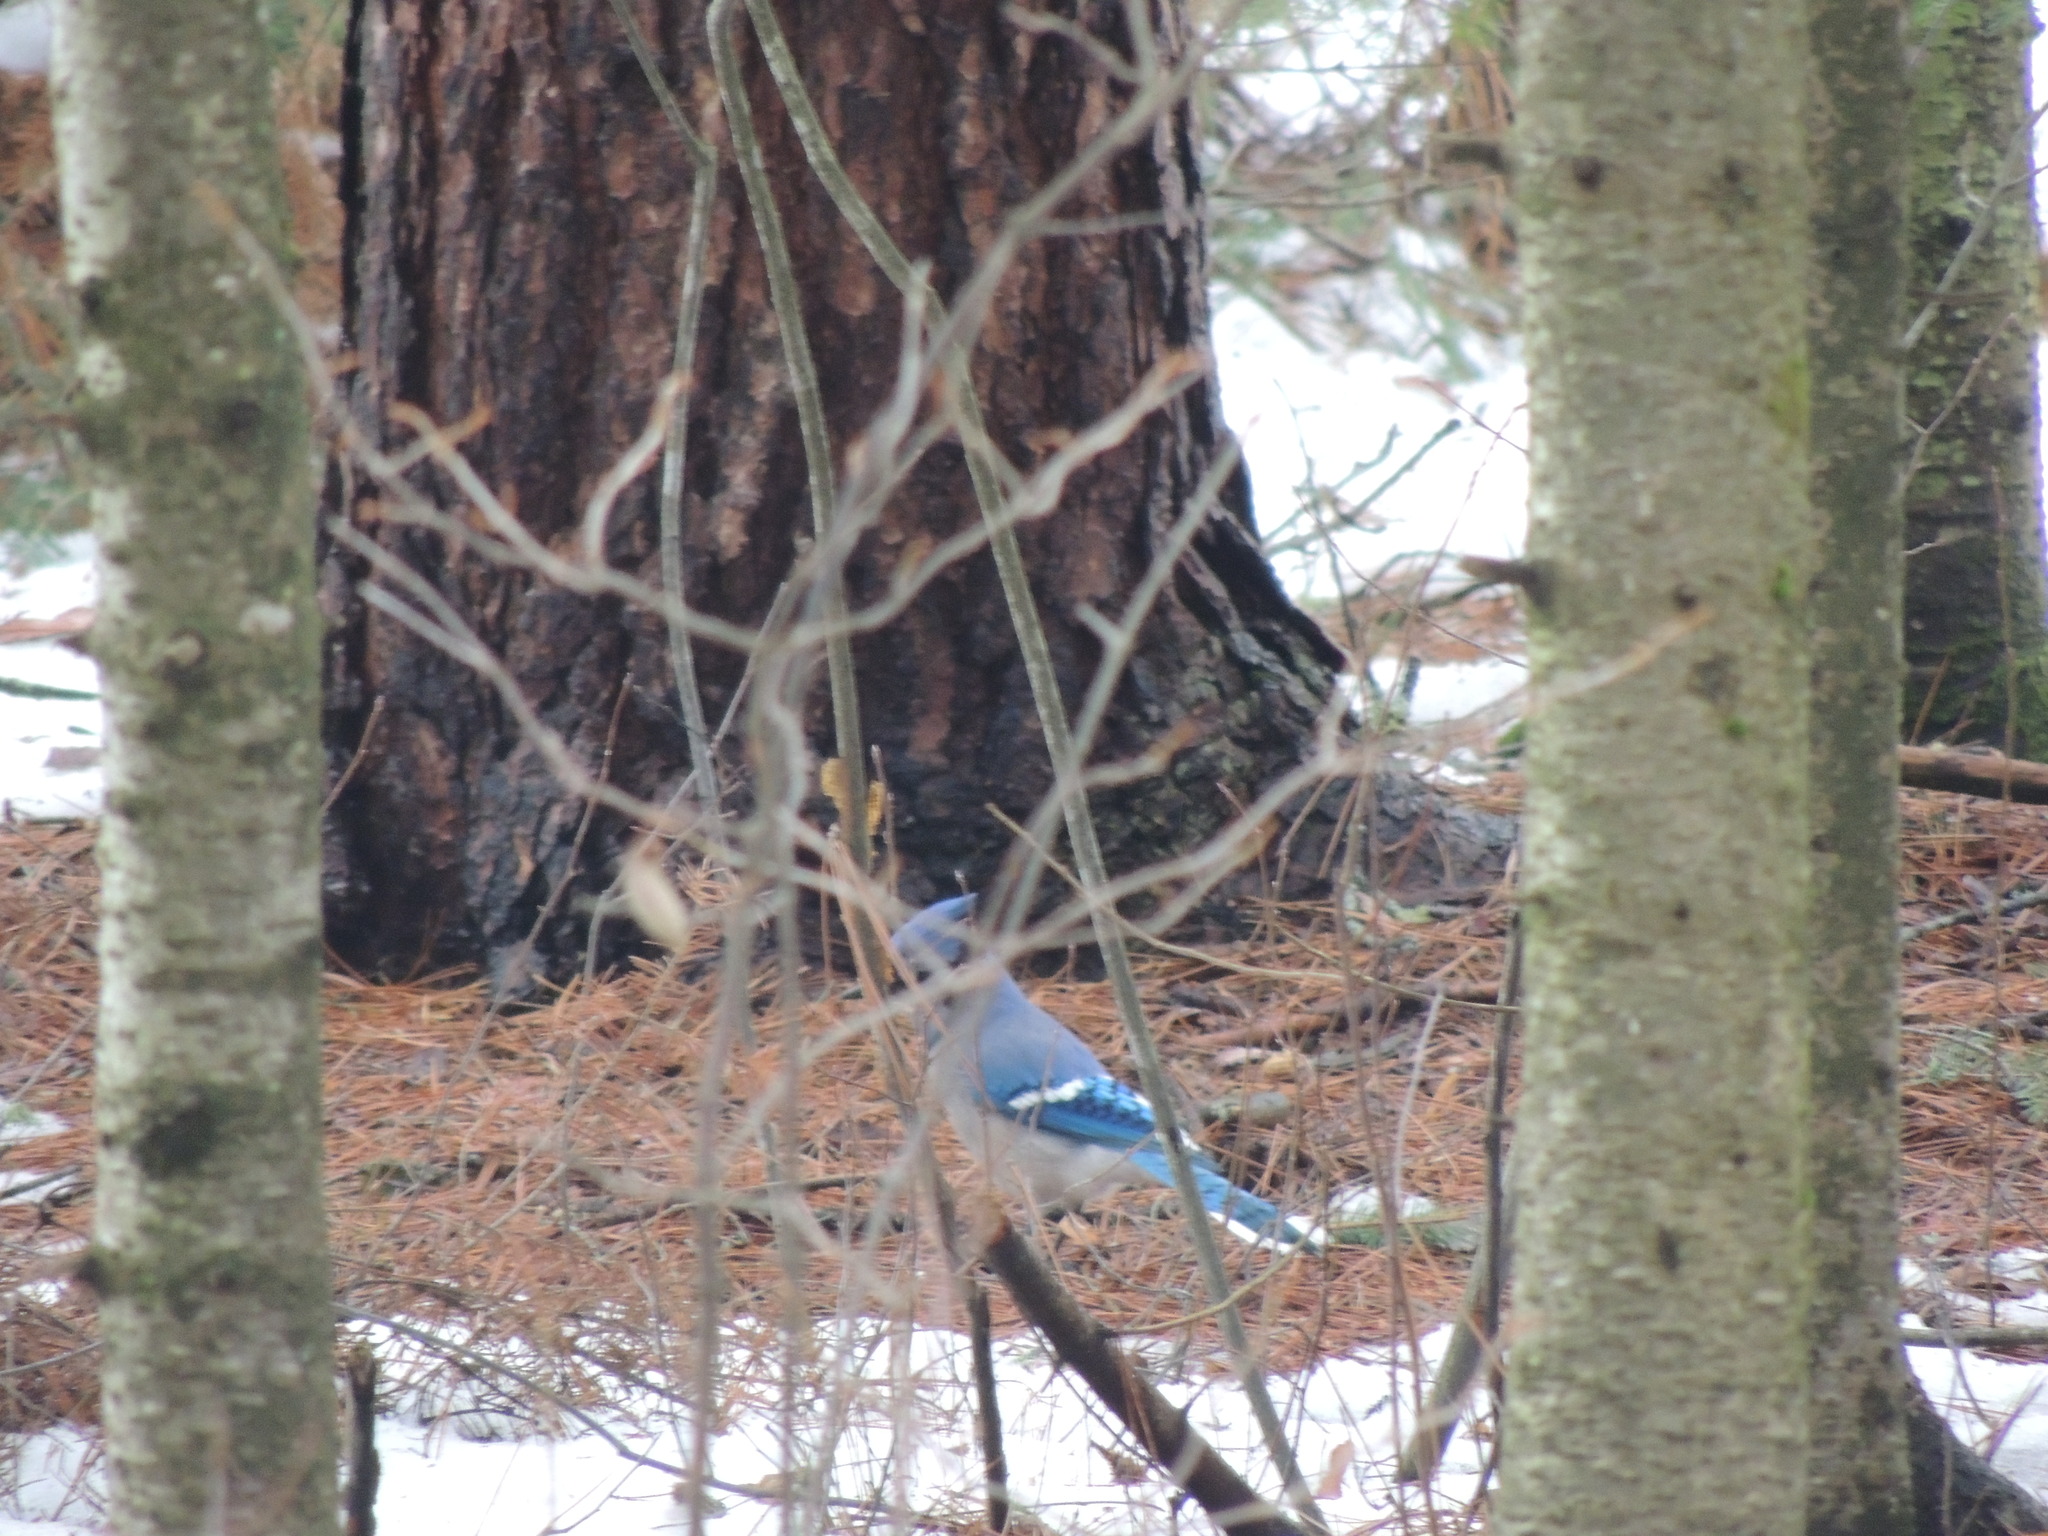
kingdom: Animalia
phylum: Chordata
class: Aves
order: Passeriformes
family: Corvidae
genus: Cyanocitta
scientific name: Cyanocitta cristata
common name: Blue jay
